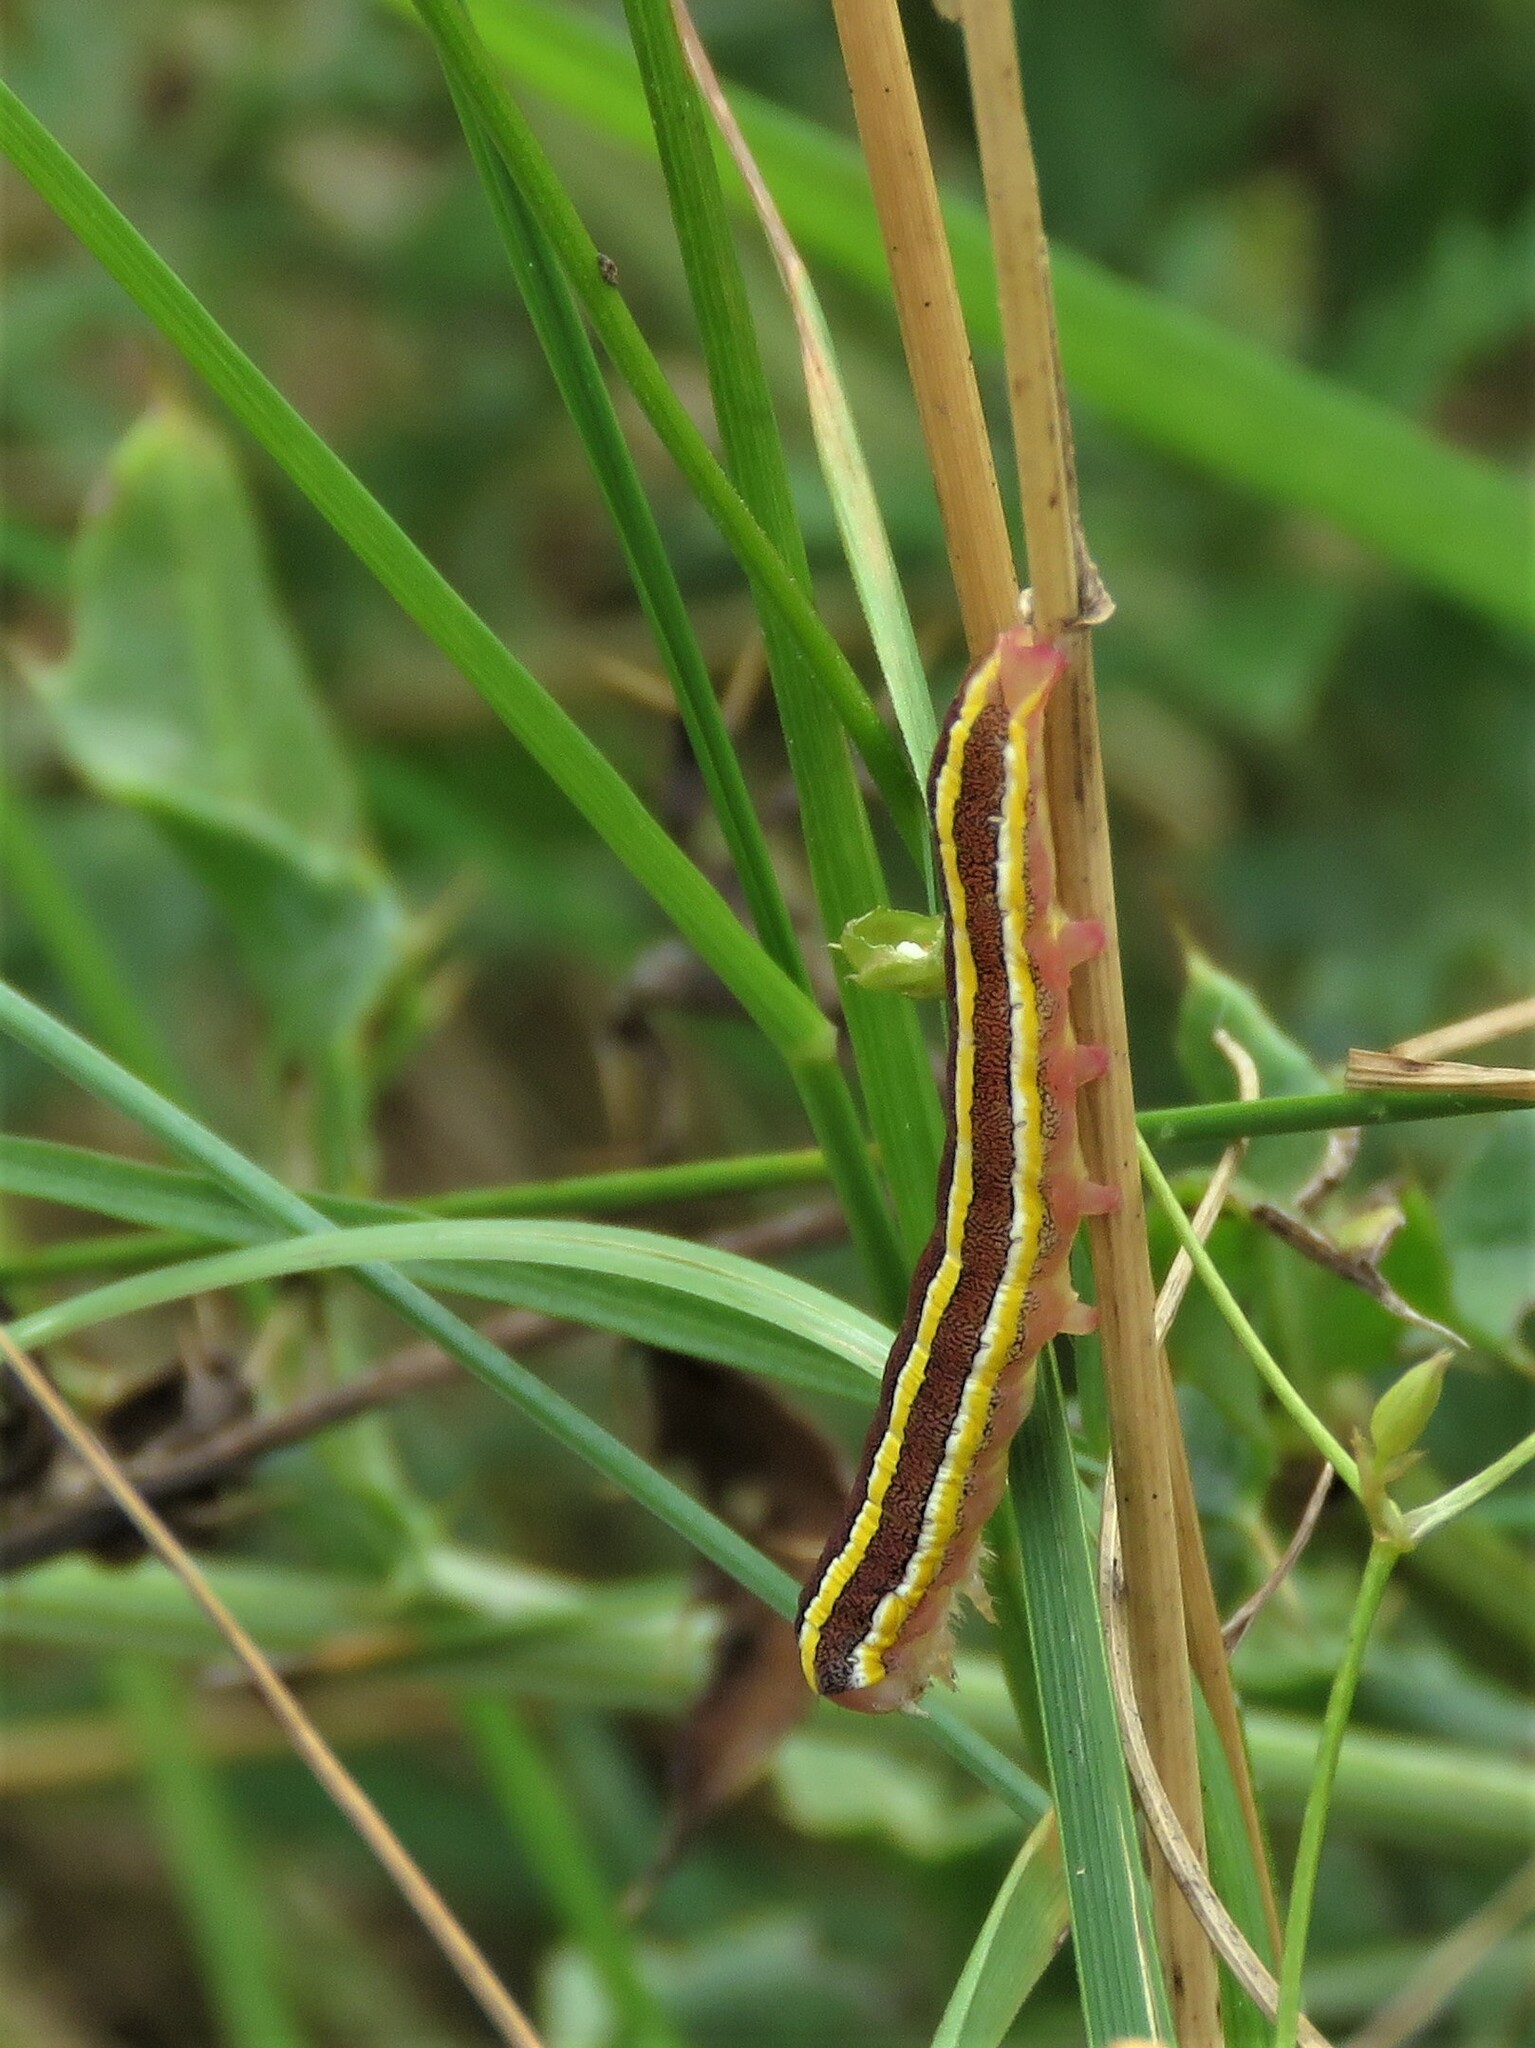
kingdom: Animalia
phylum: Arthropoda
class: Insecta
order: Lepidoptera
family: Noctuidae
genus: Ceramica
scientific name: Ceramica pisi
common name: Broom moth
